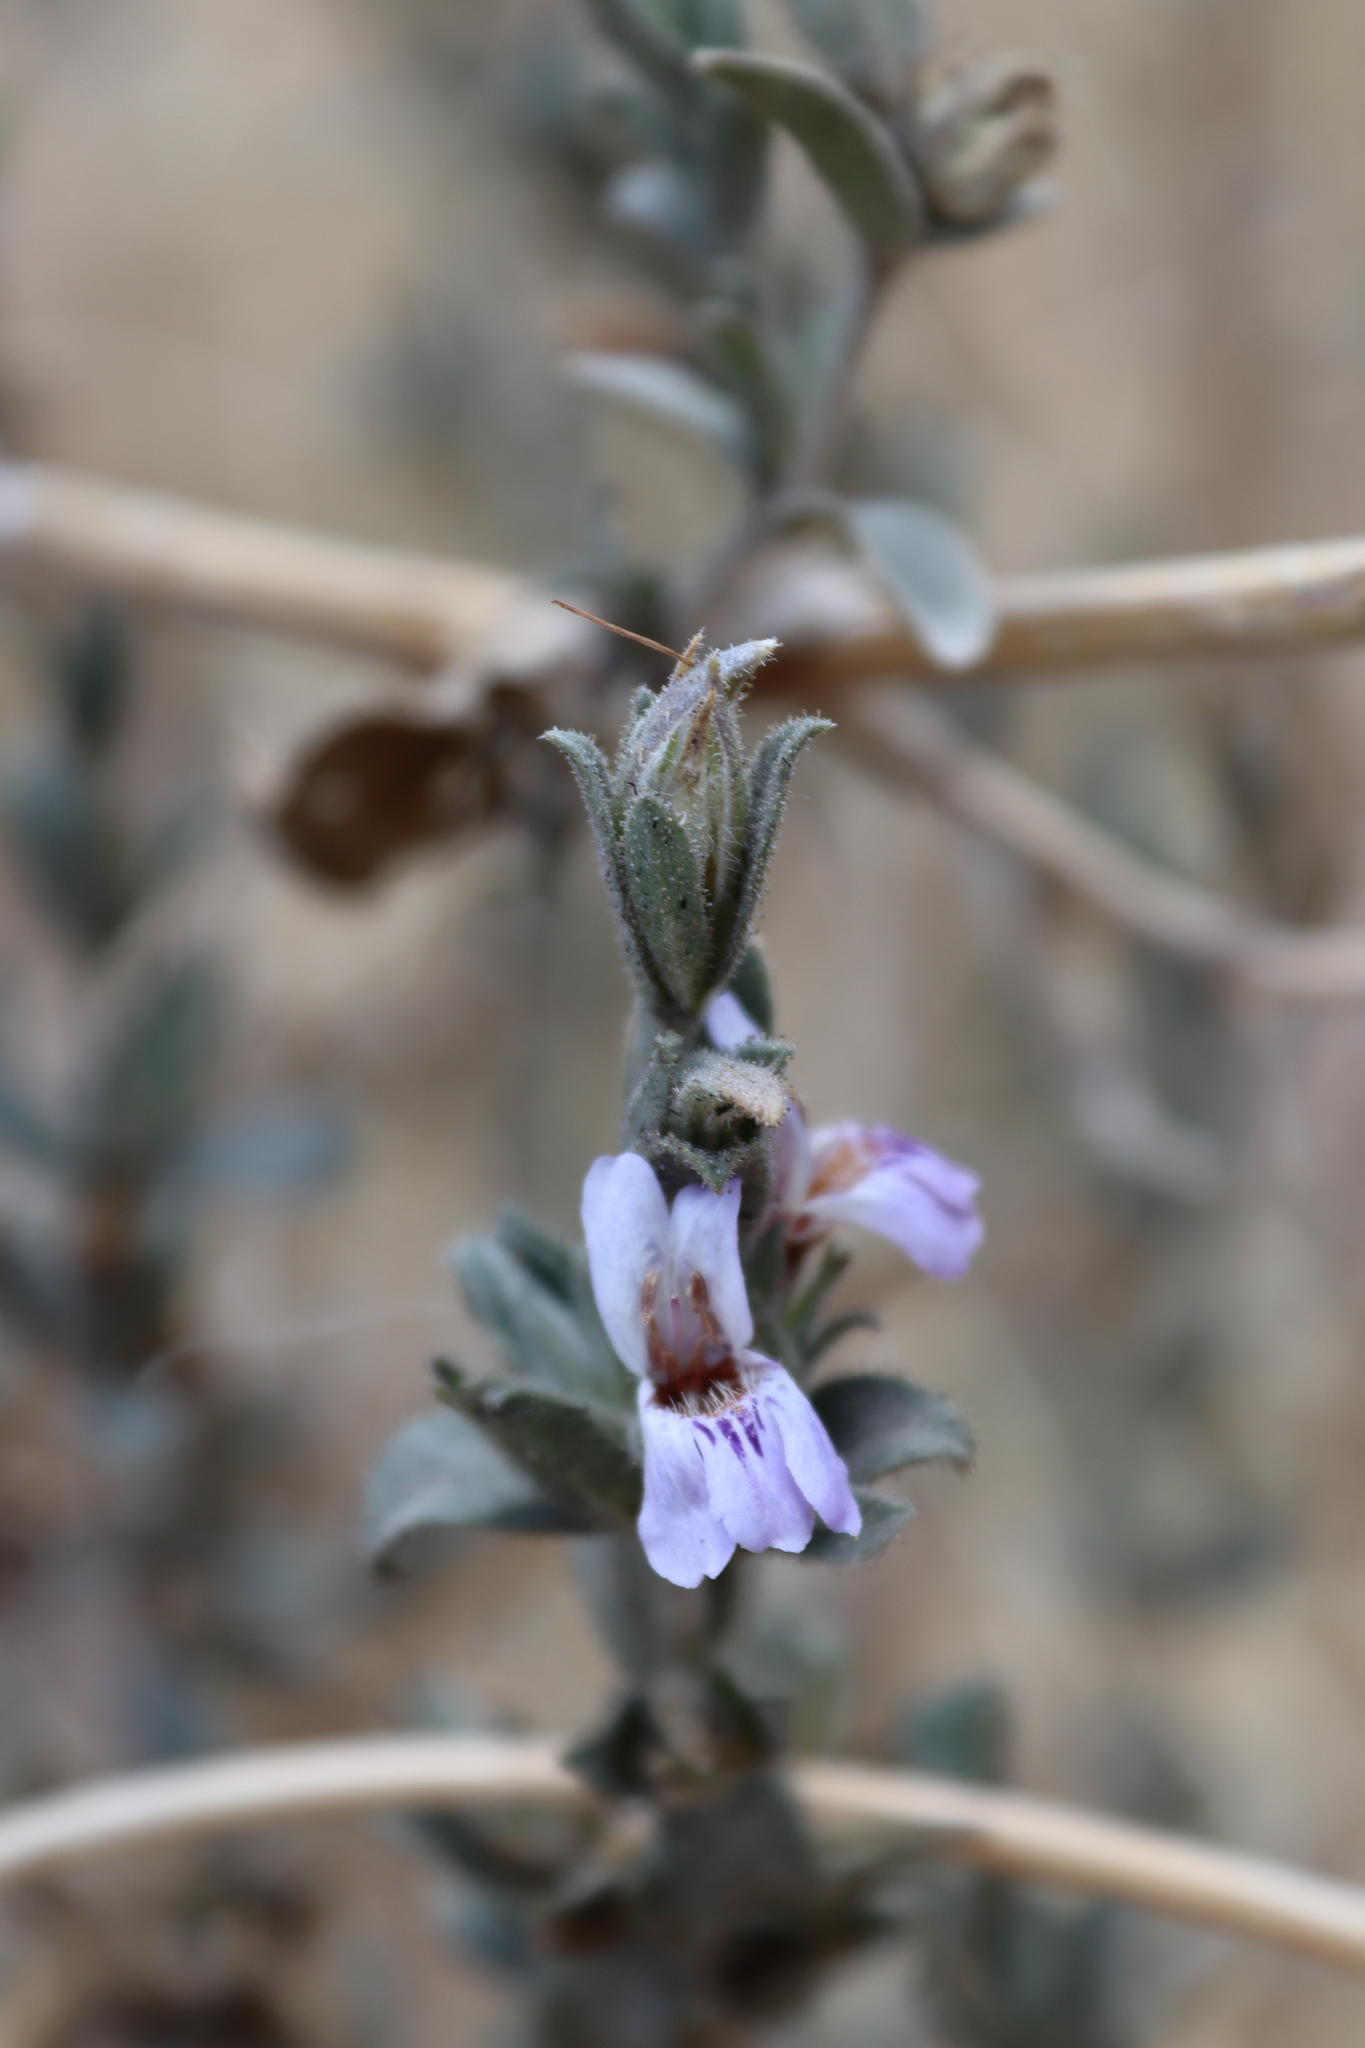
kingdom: Plantae
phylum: Tracheophyta
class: Magnoliopsida
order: Lamiales
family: Acanthaceae
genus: Duosperma
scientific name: Duosperma quadrangulare
